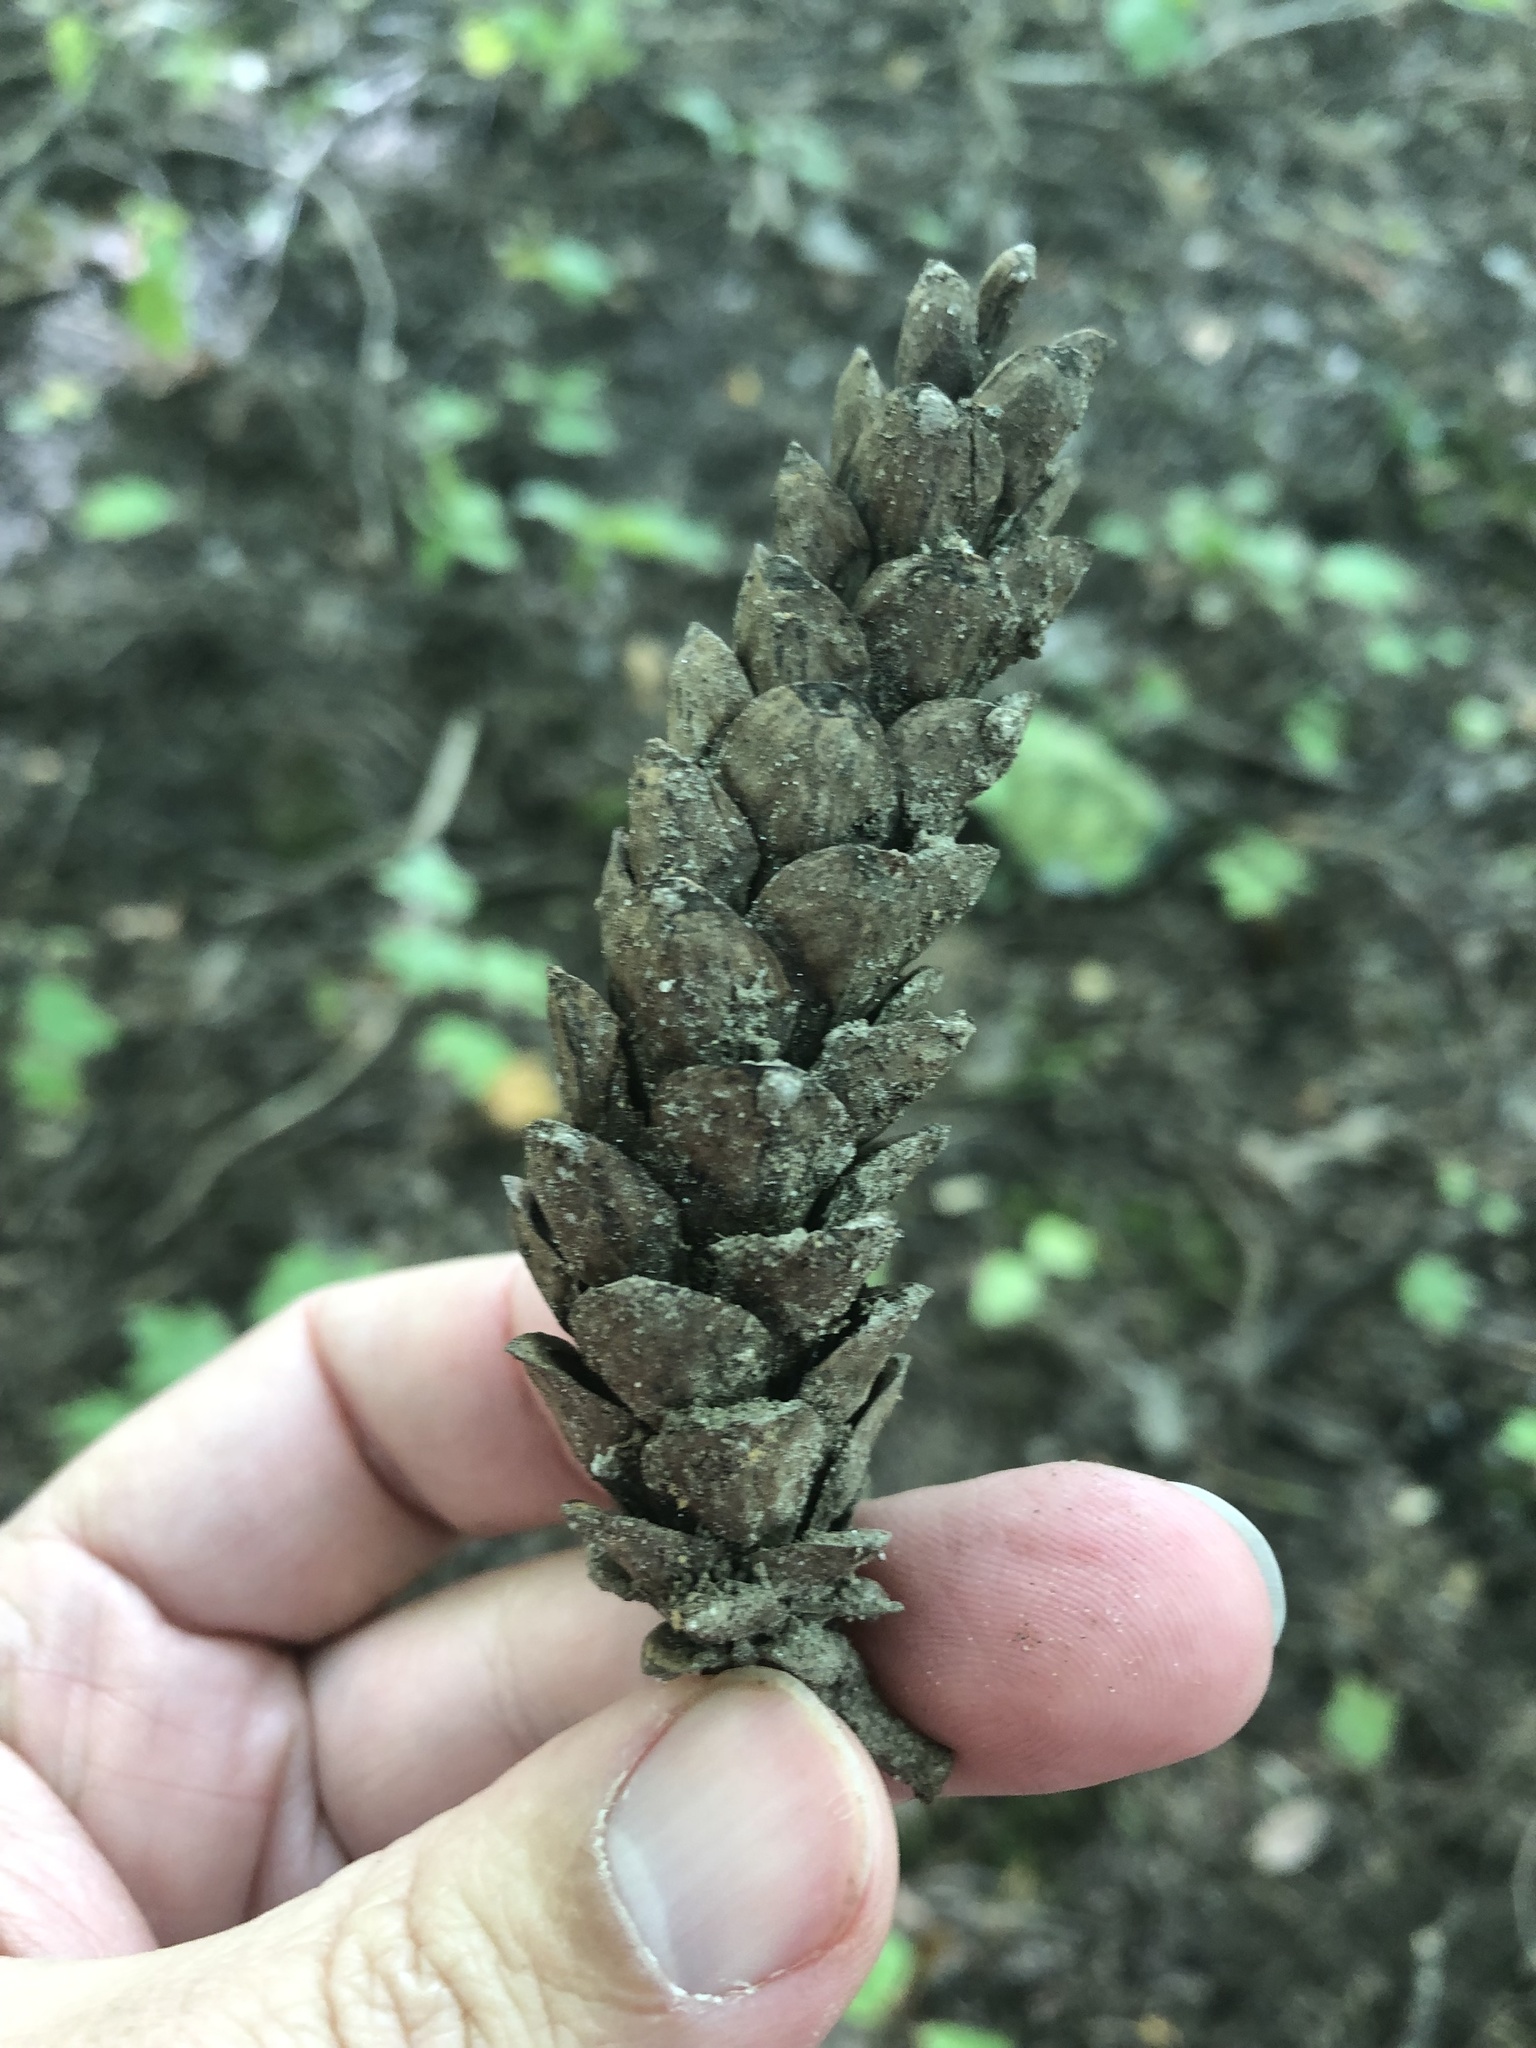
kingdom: Plantae
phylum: Tracheophyta
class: Pinopsida
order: Pinales
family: Pinaceae
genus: Pinus
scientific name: Pinus strobus
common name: Weymouth pine
